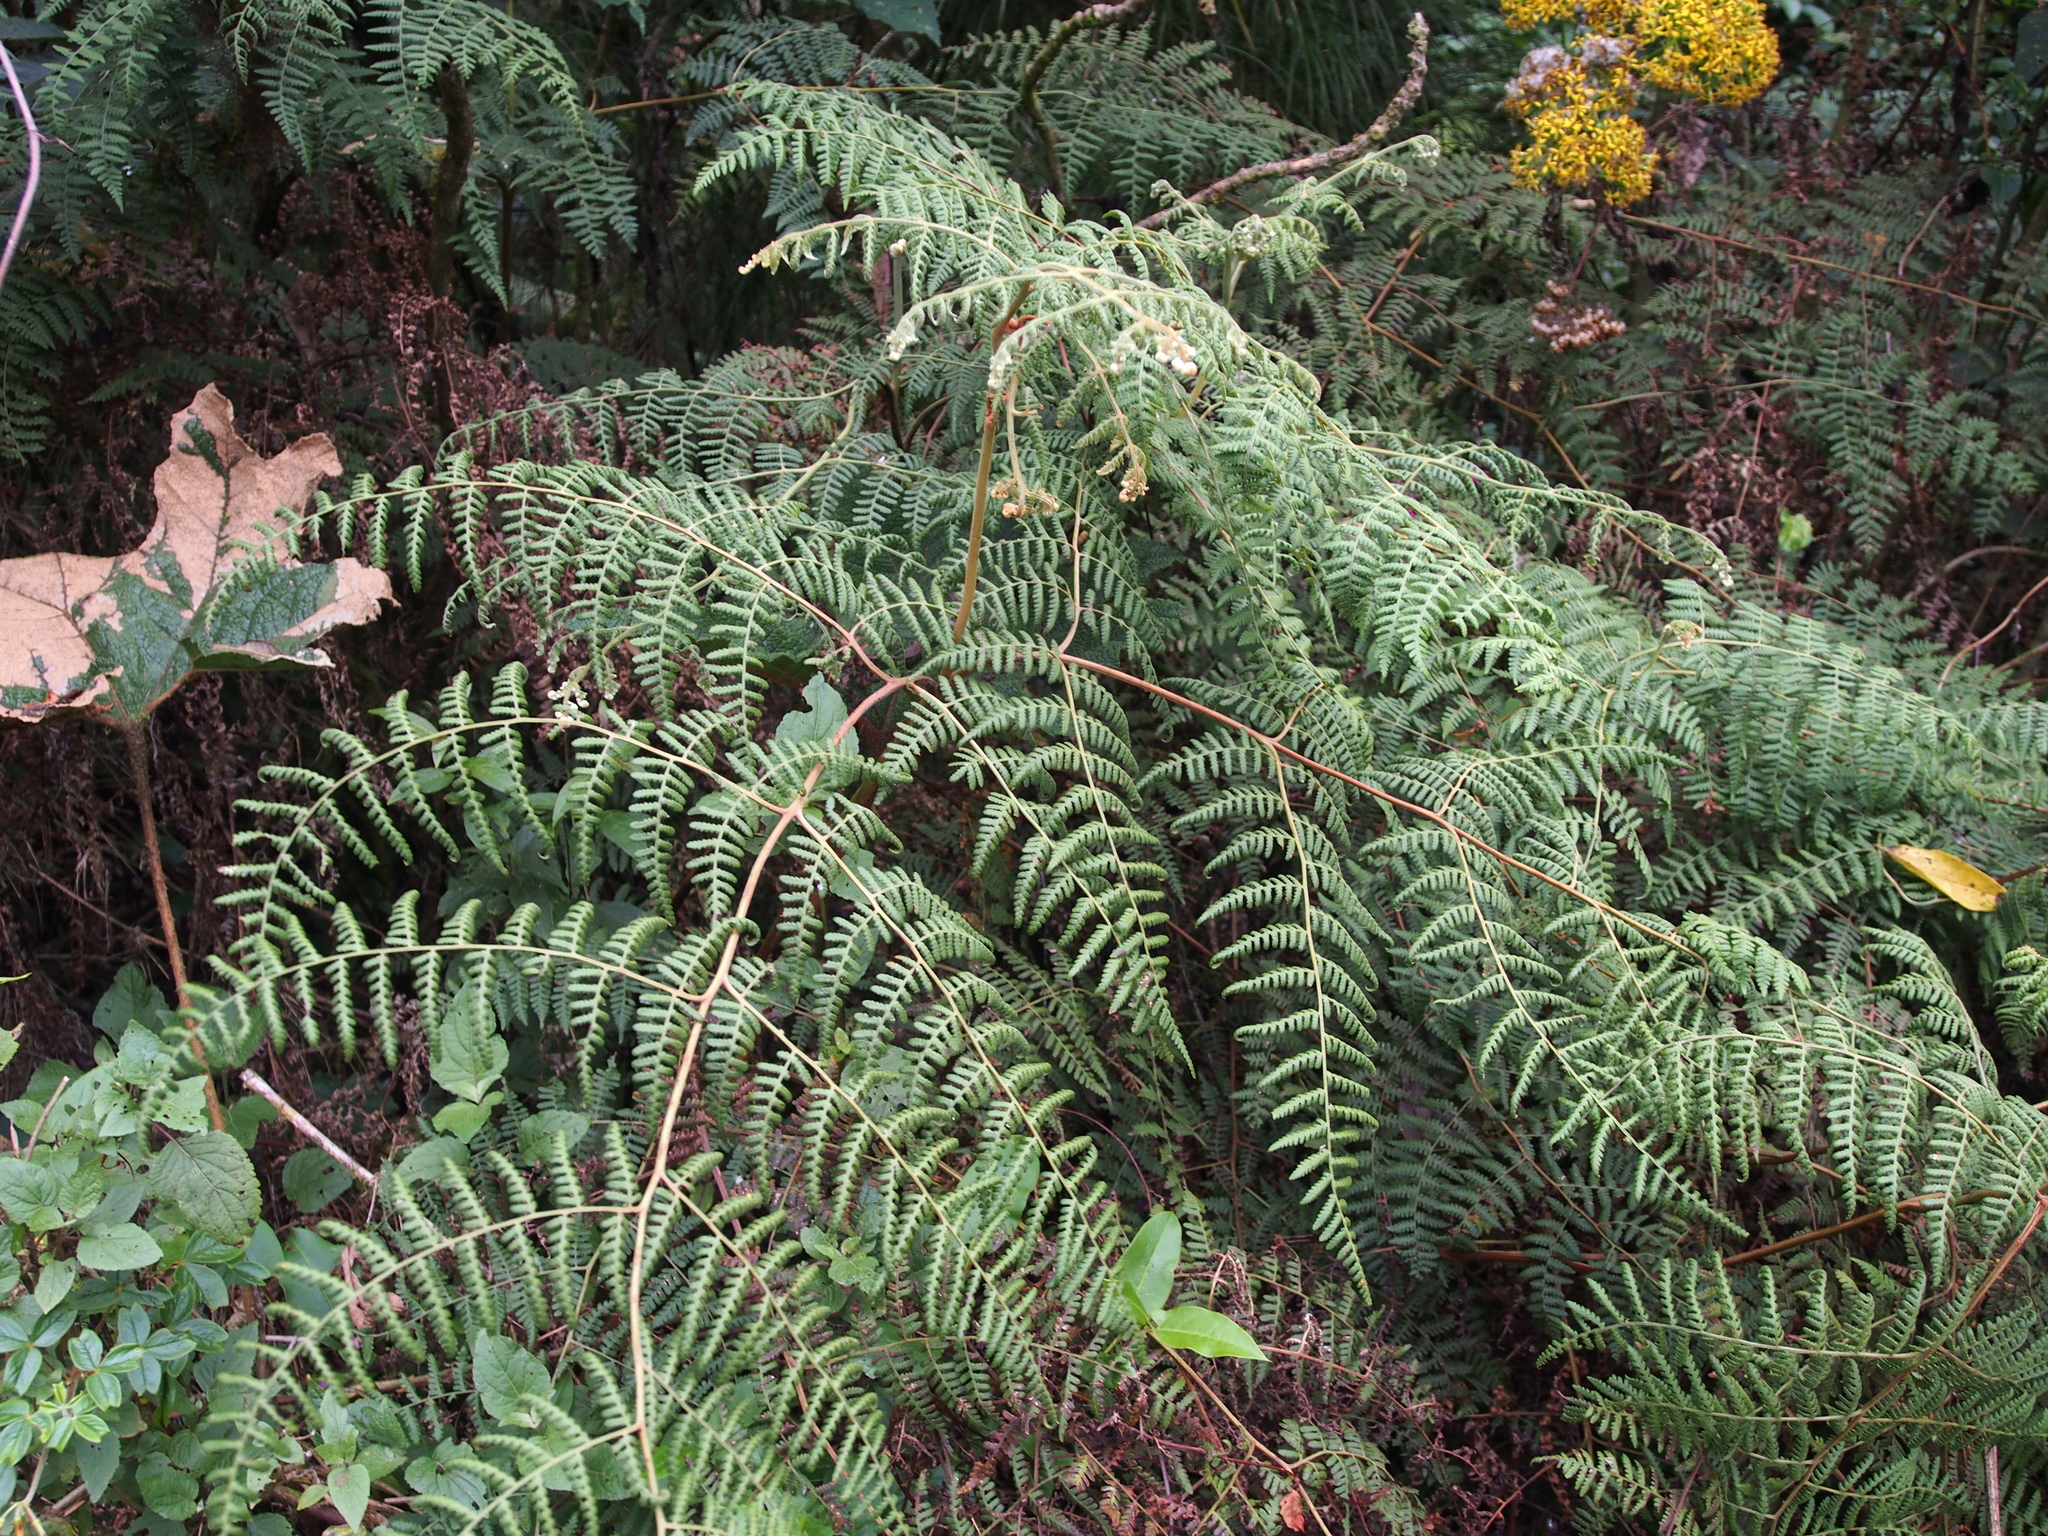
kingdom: Plantae
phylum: Tracheophyta
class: Polypodiopsida
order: Polypodiales
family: Dennstaedtiaceae
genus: Pteridium
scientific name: Pteridium esculentum
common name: Bracken fern
